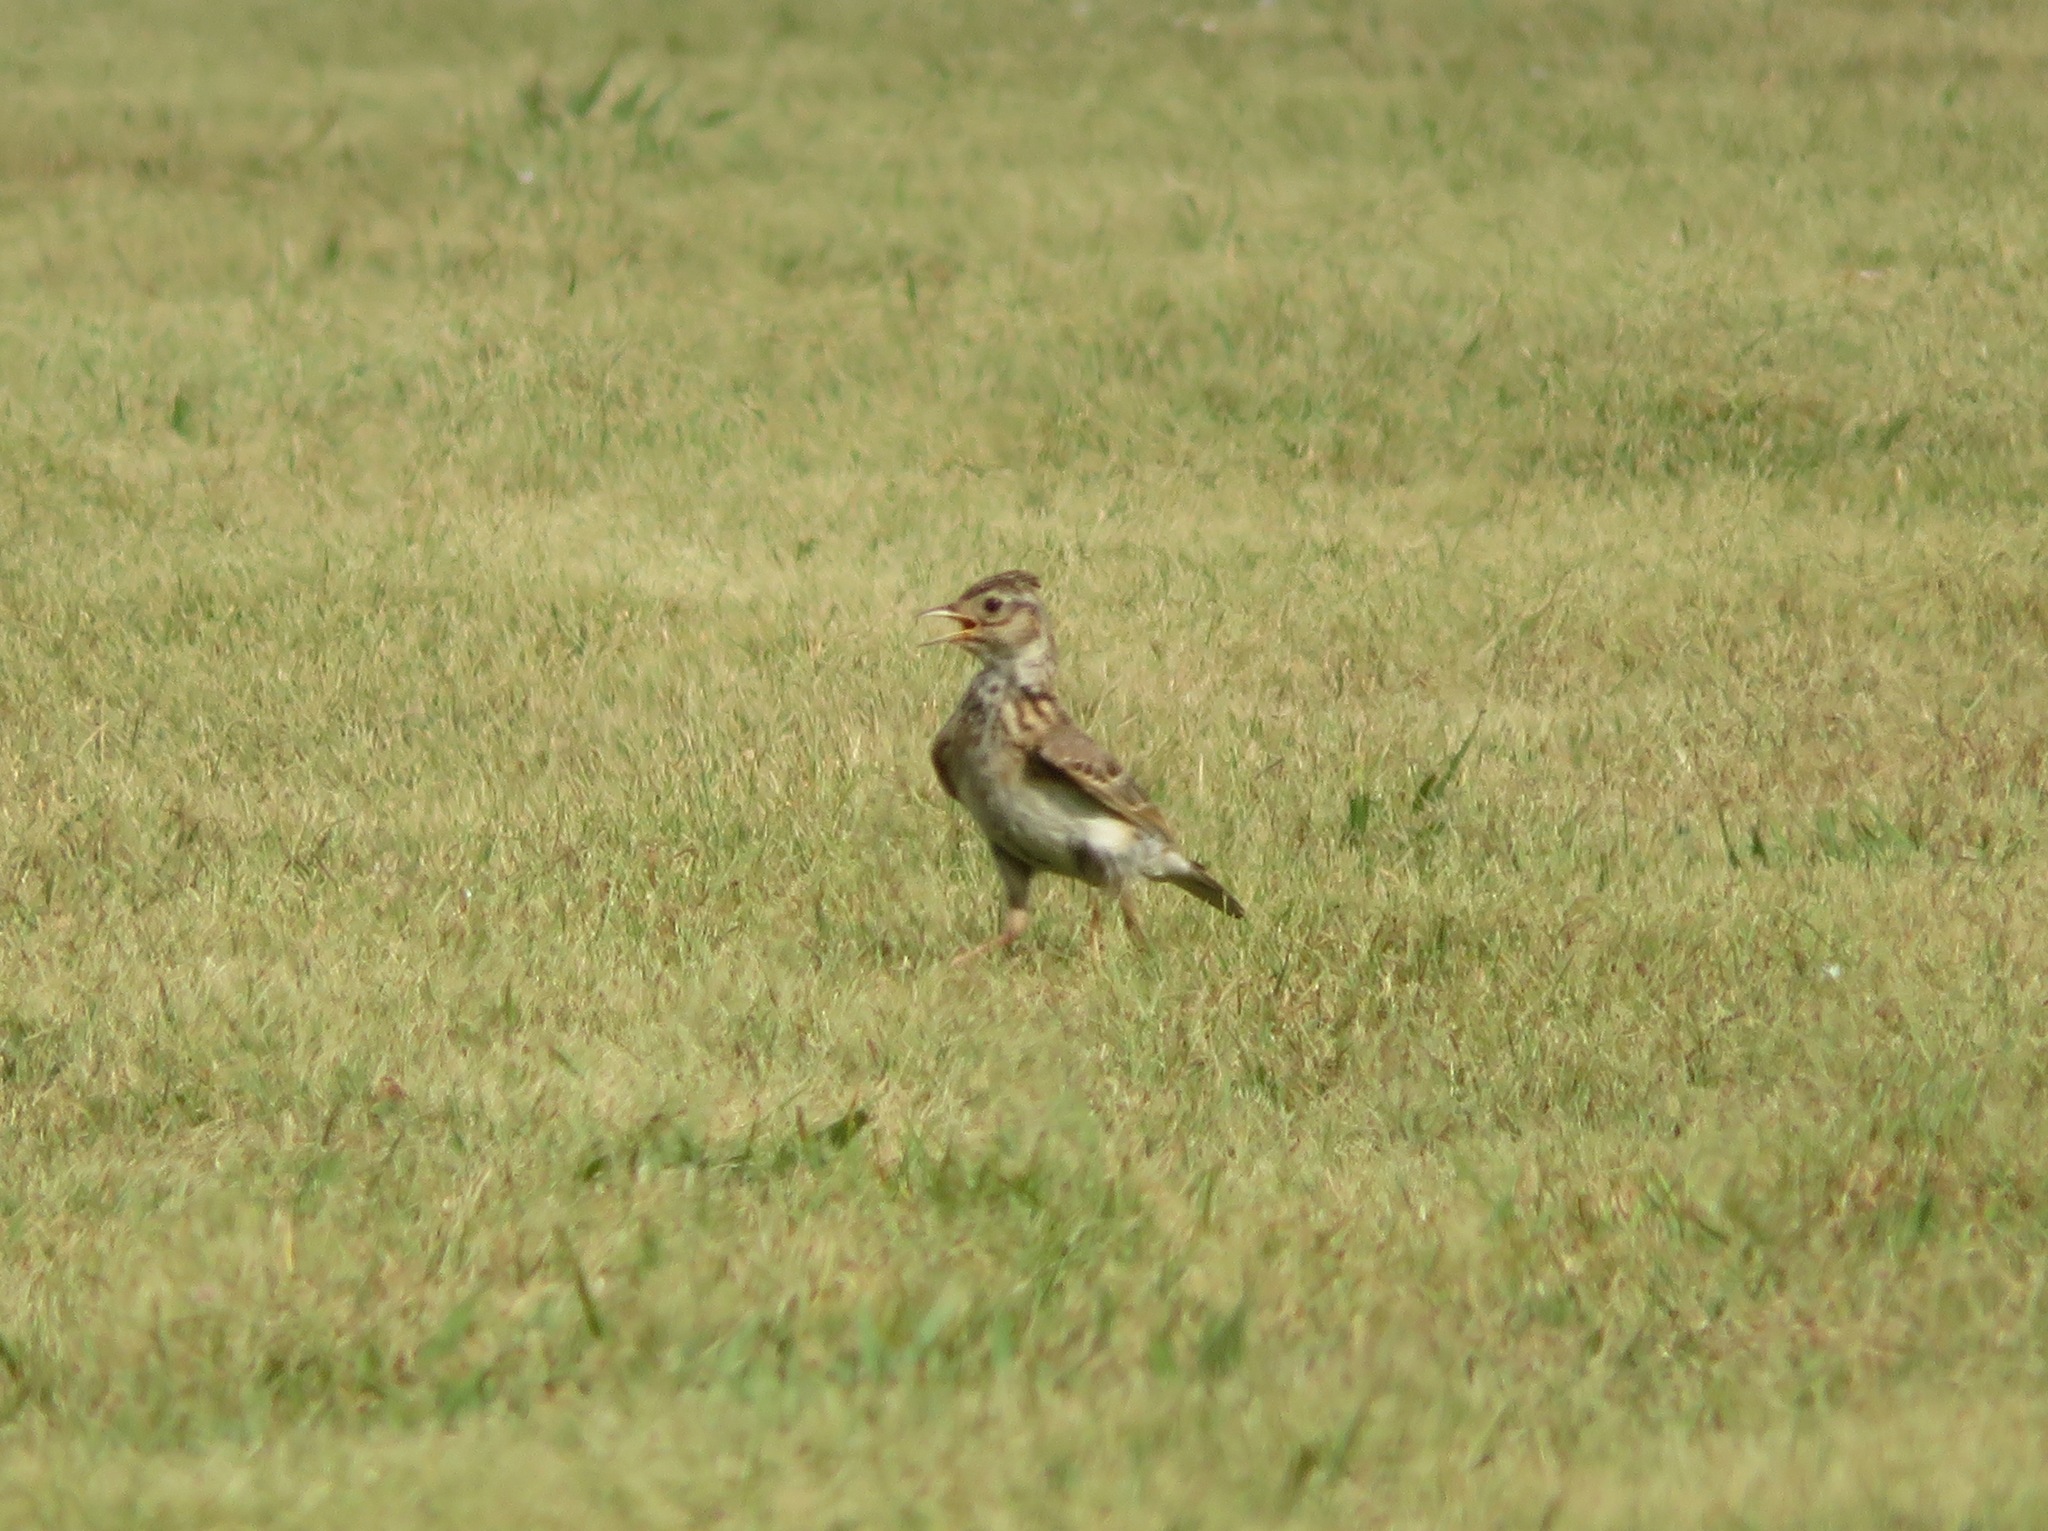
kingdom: Animalia
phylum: Chordata
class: Aves
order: Passeriformes
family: Alaudidae
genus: Alauda
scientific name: Alauda arvensis
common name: Eurasian skylark
